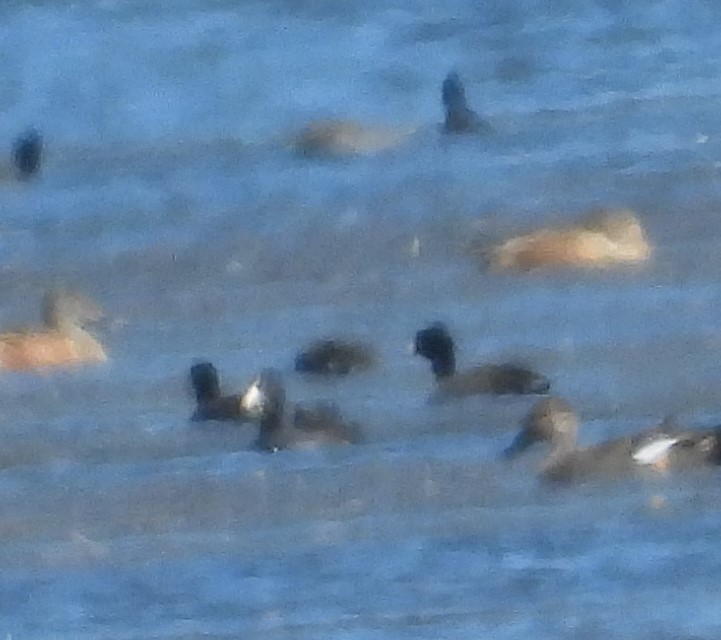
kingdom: Animalia
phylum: Chordata
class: Aves
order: Gruiformes
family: Rallidae
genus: Fulica
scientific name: Fulica americana
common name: American coot
